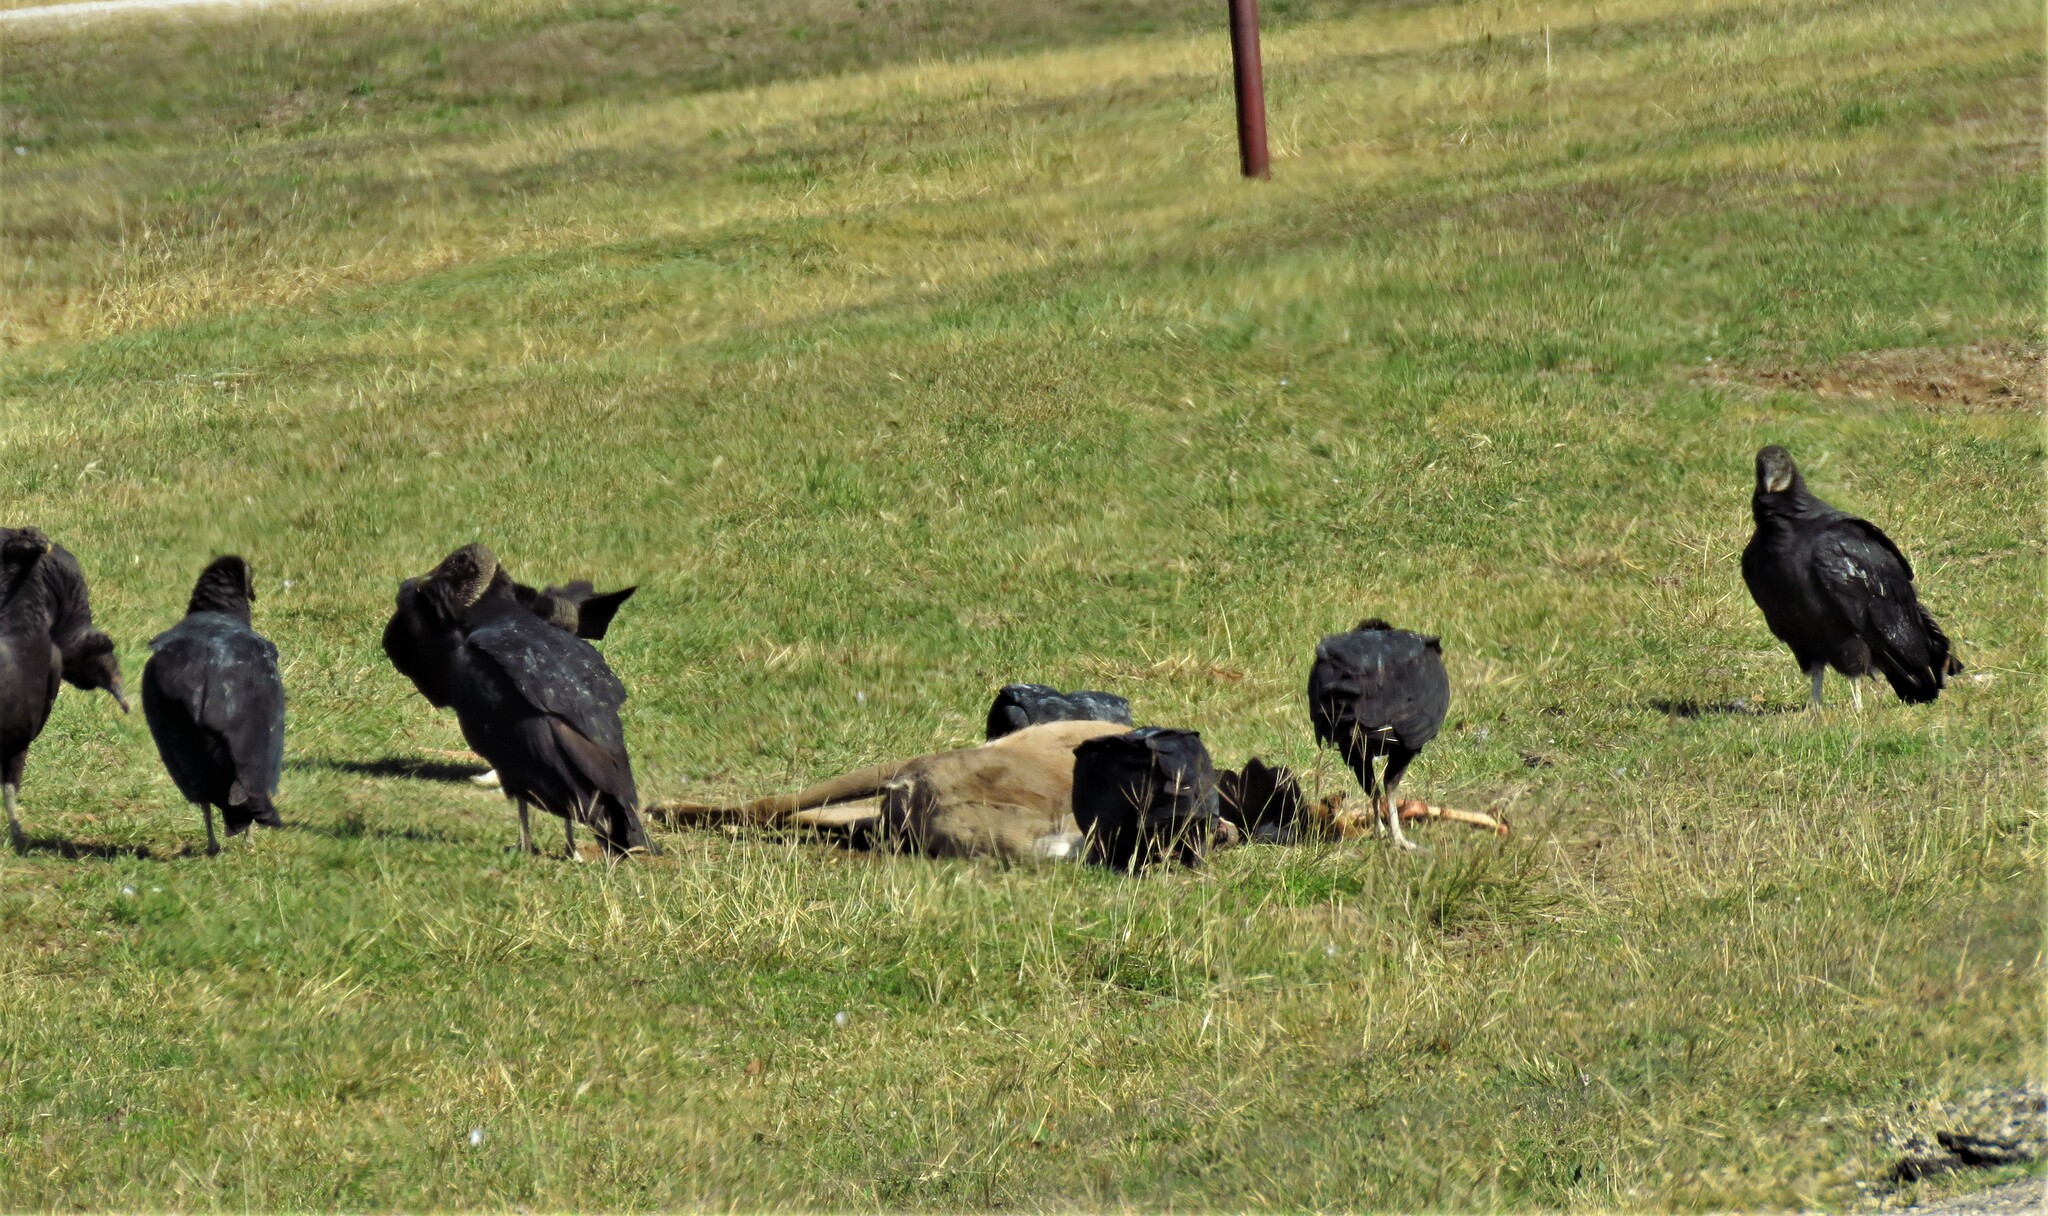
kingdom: Animalia
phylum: Chordata
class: Aves
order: Accipitriformes
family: Cathartidae
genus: Coragyps
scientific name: Coragyps atratus
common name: Black vulture
